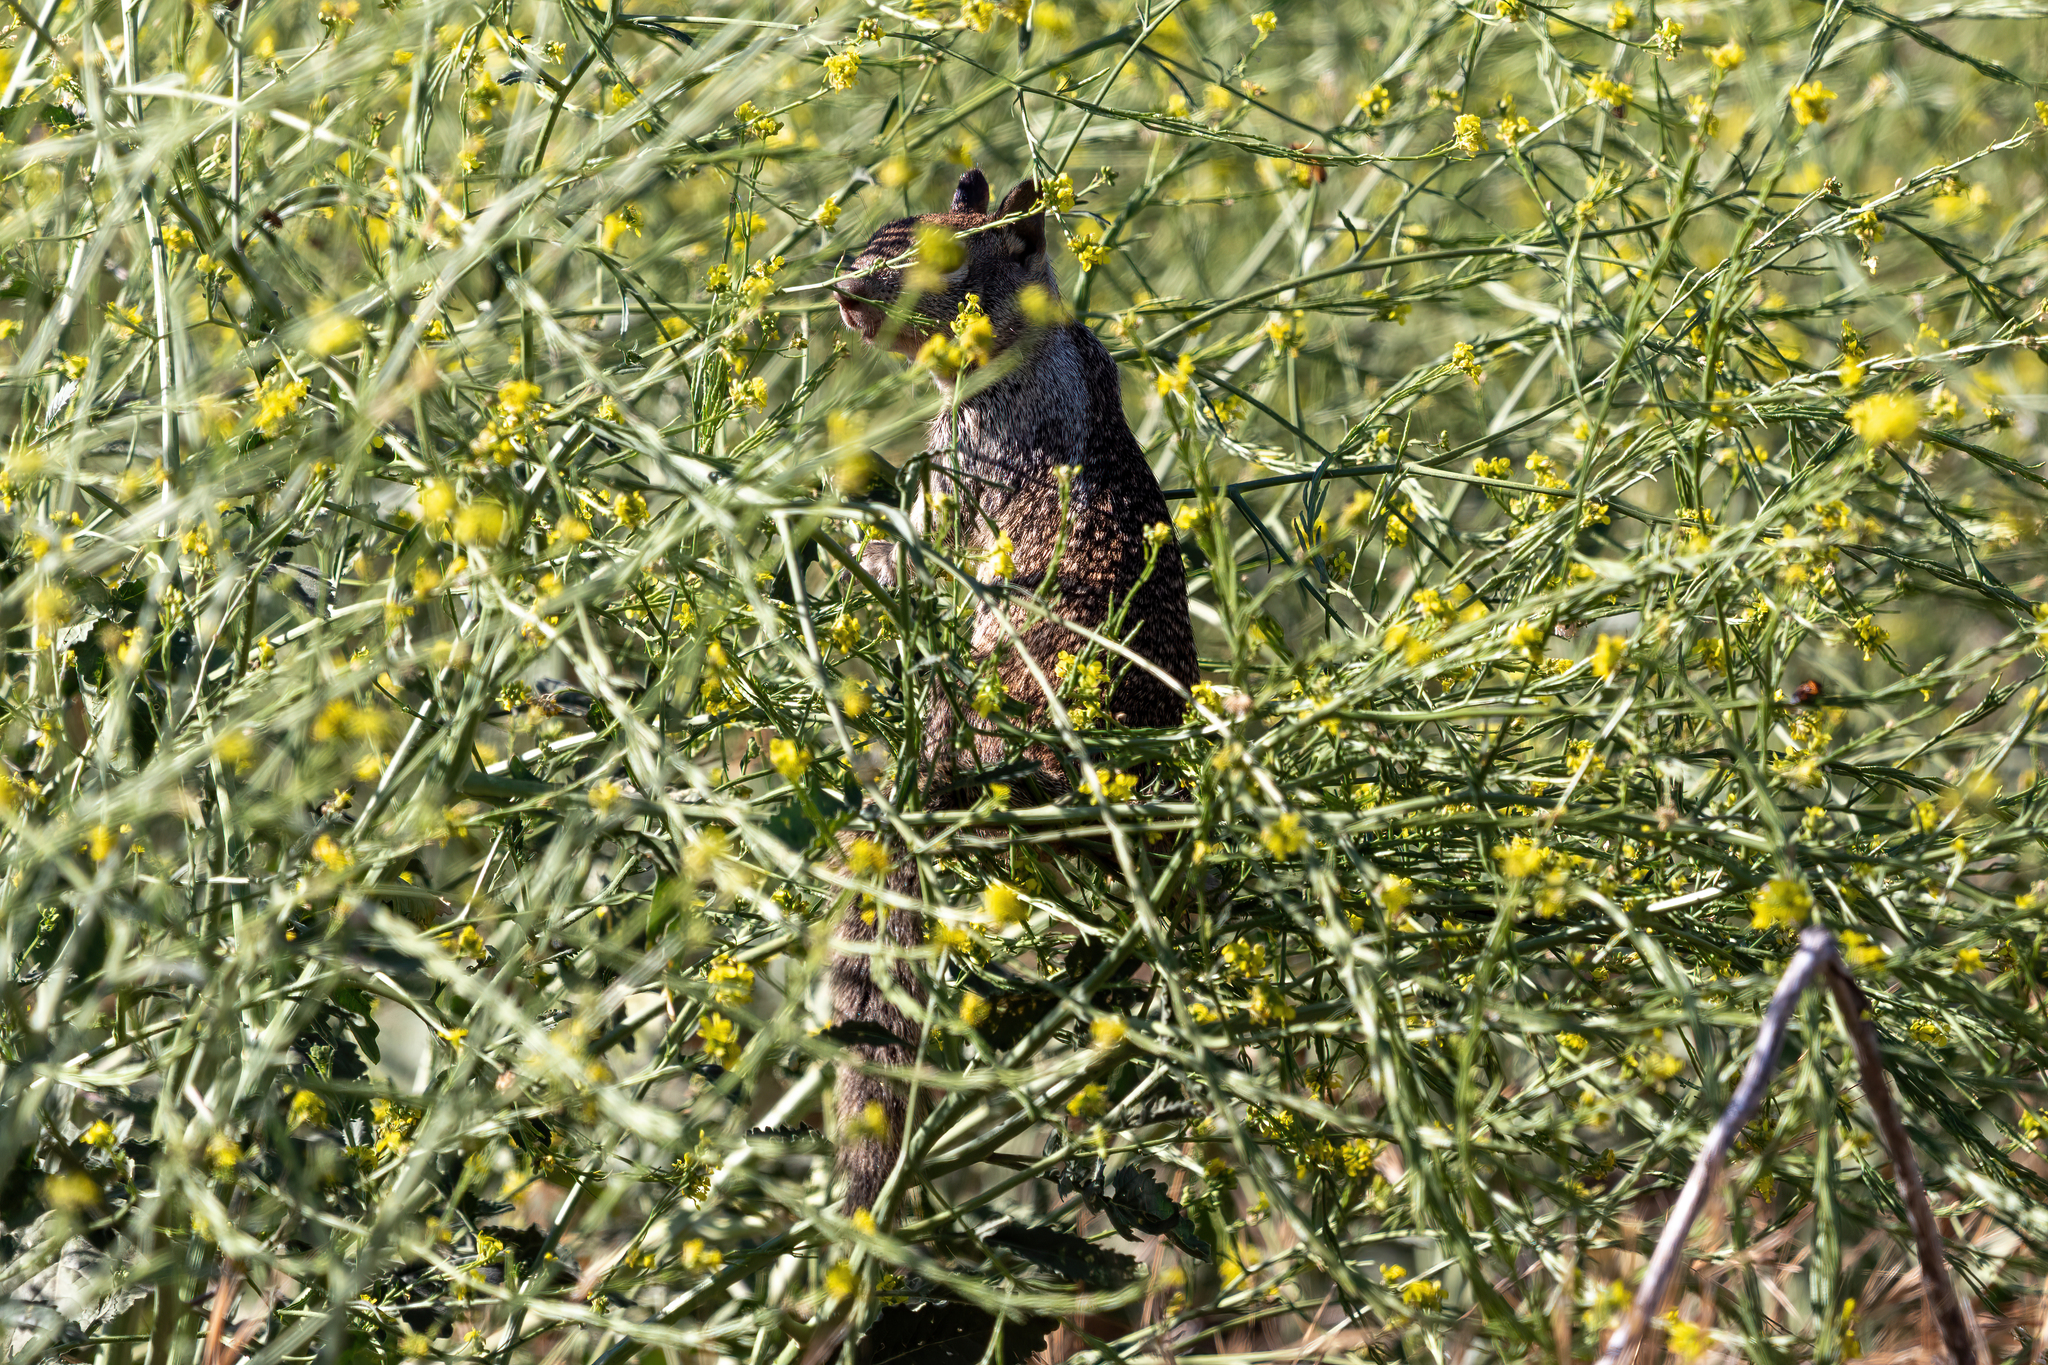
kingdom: Animalia
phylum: Chordata
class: Mammalia
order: Rodentia
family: Sciuridae
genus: Otospermophilus
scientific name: Otospermophilus beecheyi
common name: California ground squirrel
